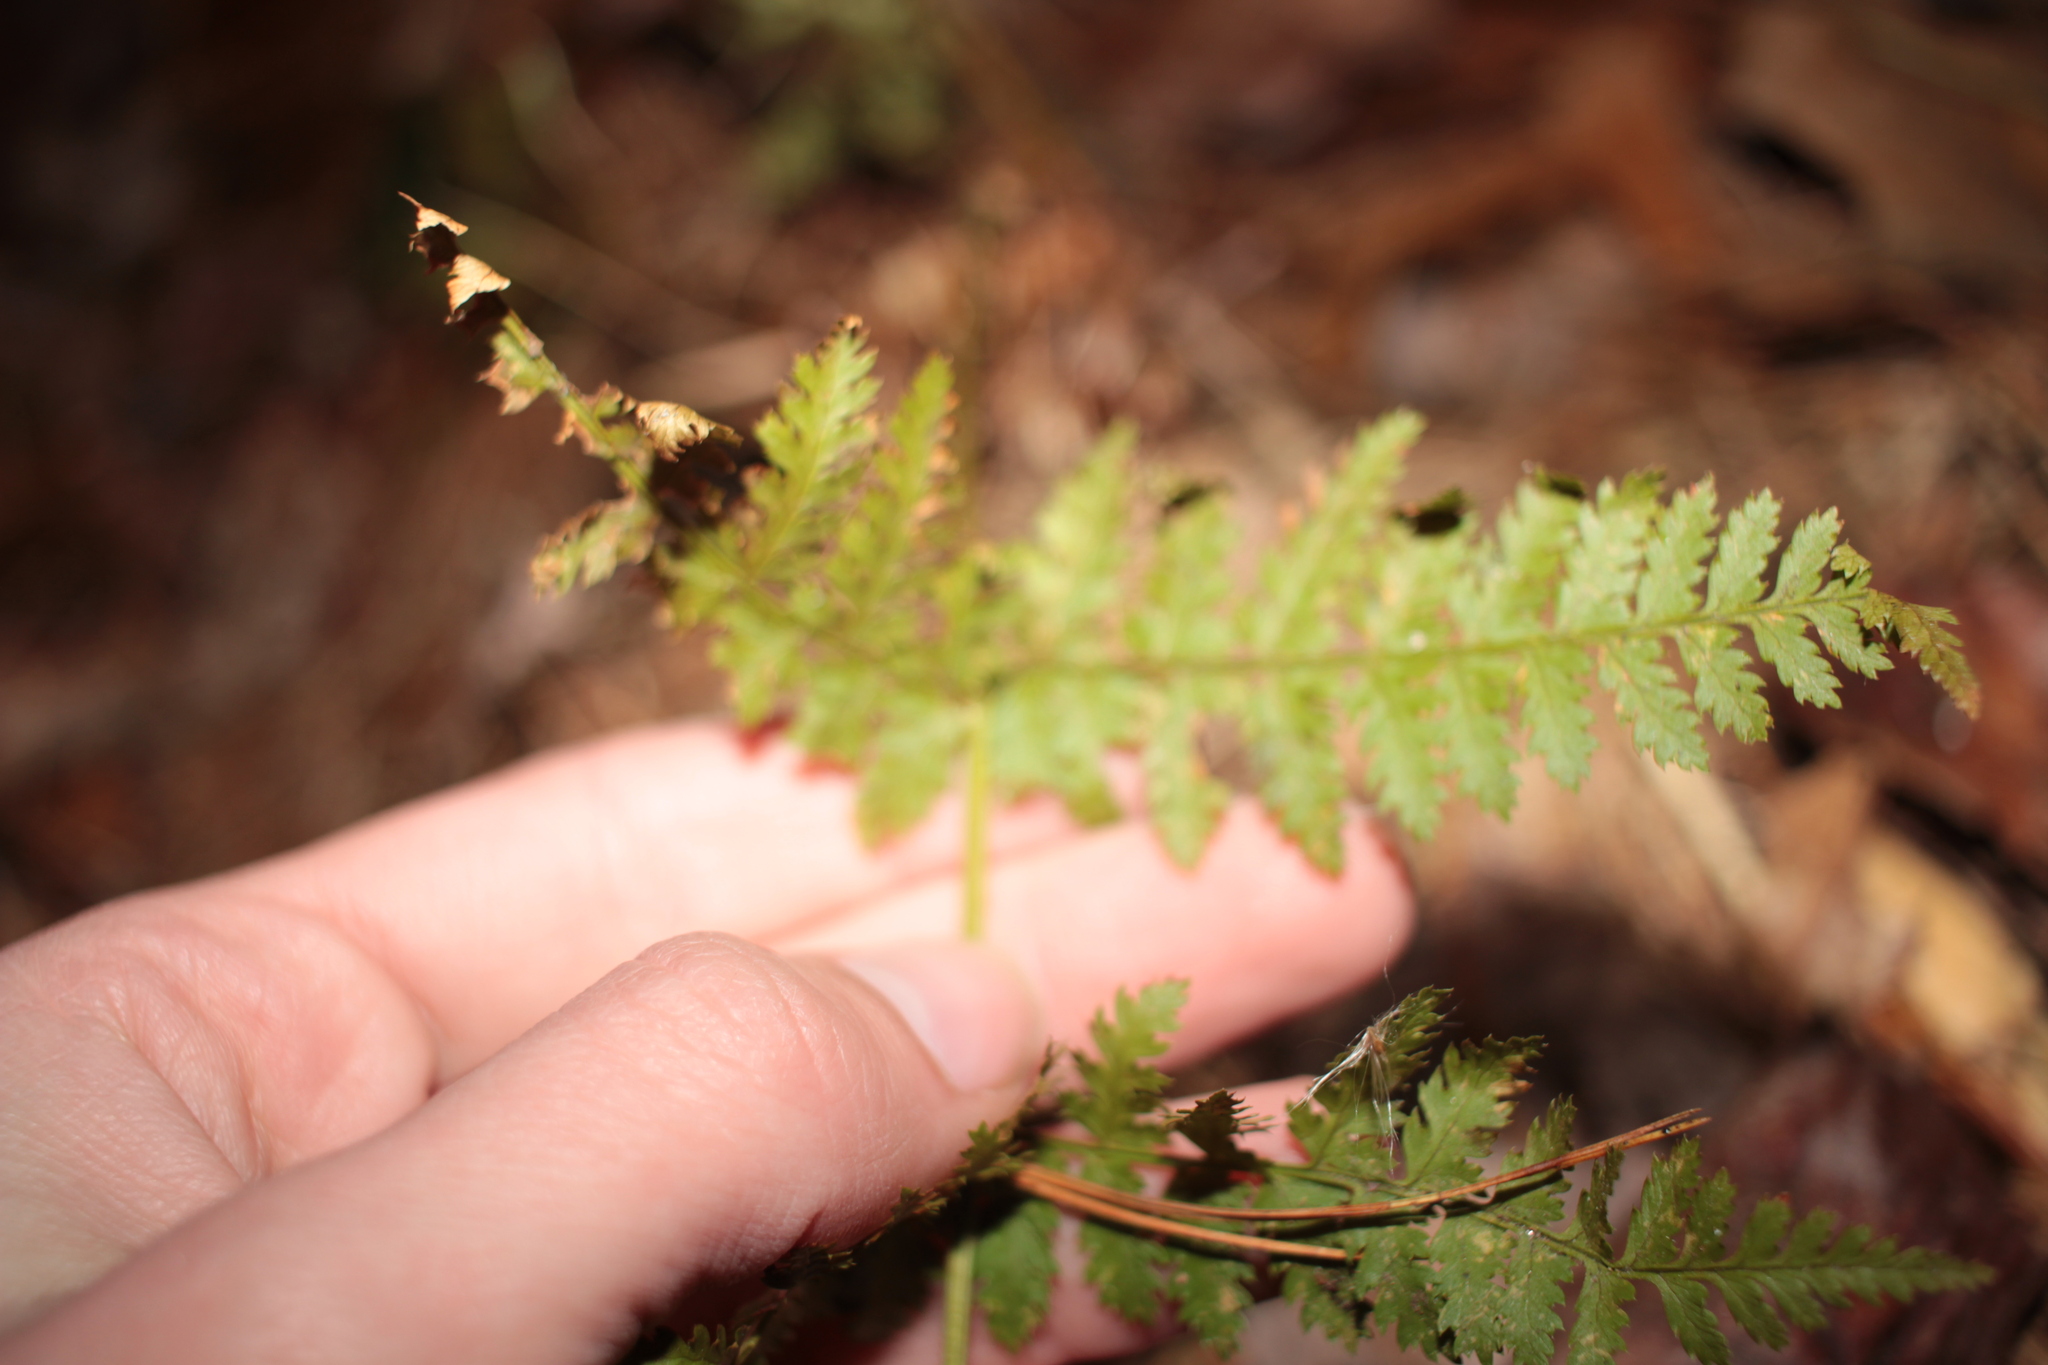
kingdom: Plantae
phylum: Tracheophyta
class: Polypodiopsida
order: Polypodiales
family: Dryopteridaceae
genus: Dryopteris
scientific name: Dryopteris intermedia
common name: Evergreen wood fern
